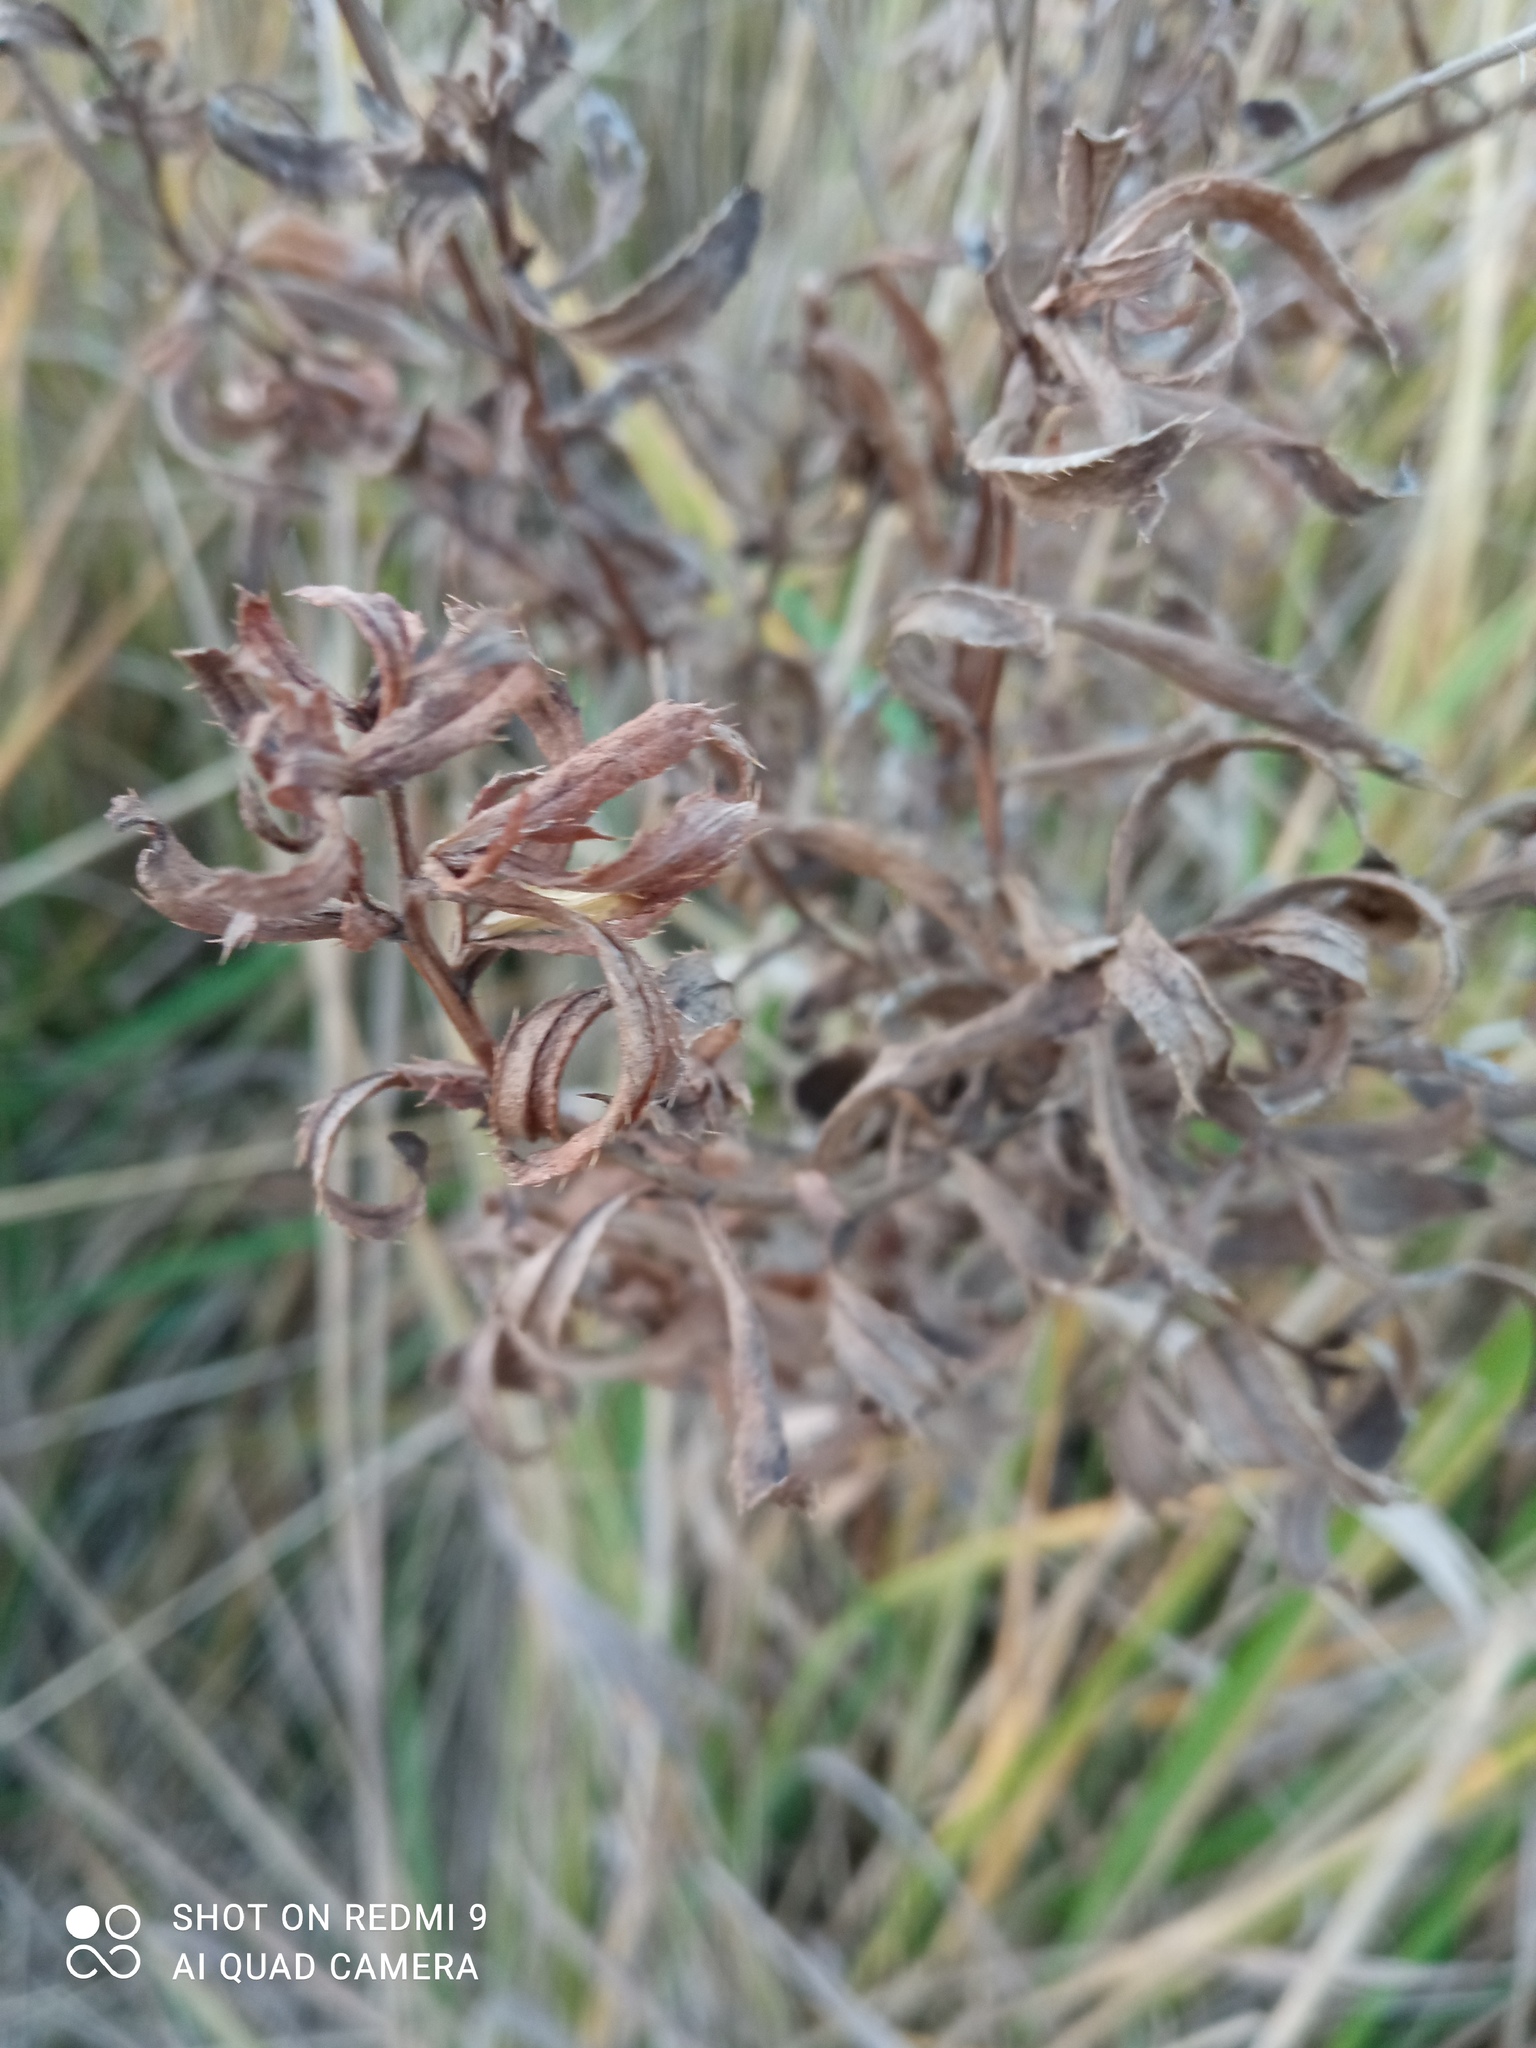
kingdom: Plantae
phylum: Tracheophyta
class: Magnoliopsida
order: Asterales
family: Asteraceae
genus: Cirsium
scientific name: Cirsium arvense
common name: Creeping thistle
